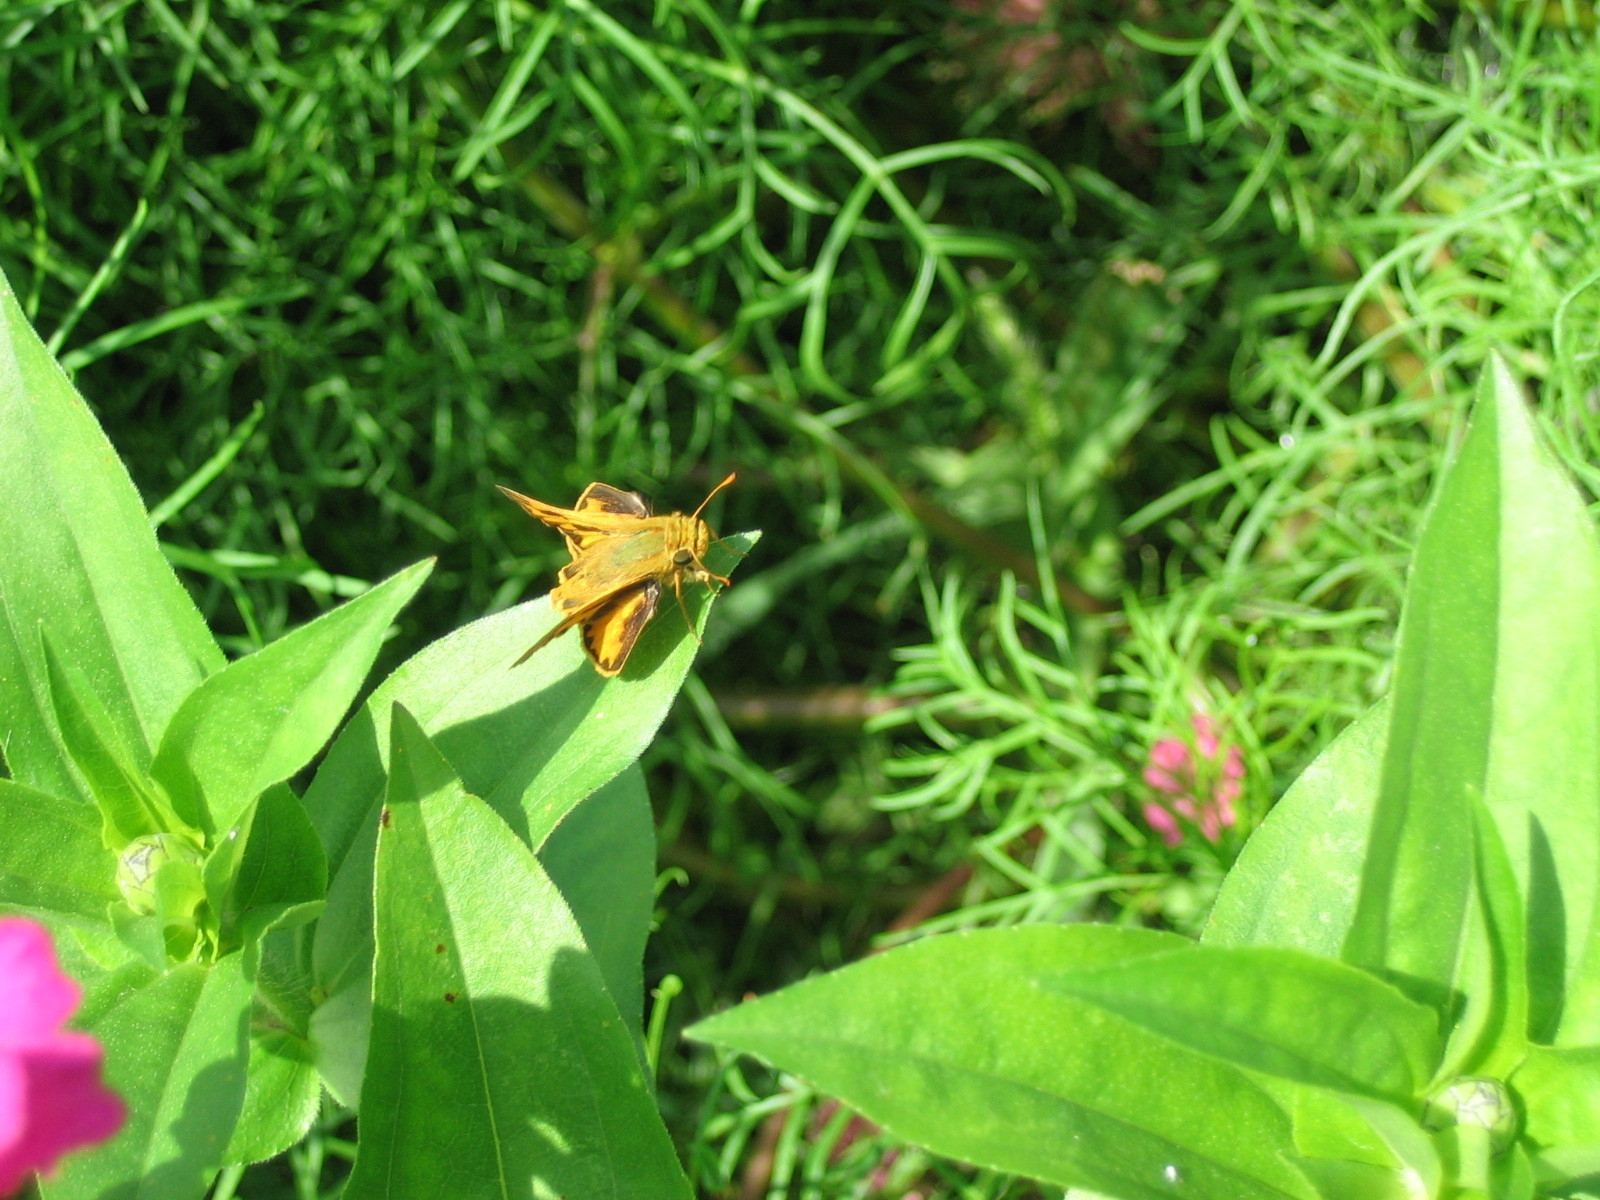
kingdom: Animalia
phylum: Arthropoda
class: Insecta
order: Lepidoptera
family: Hesperiidae
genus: Hylephila
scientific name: Hylephila phyleus
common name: Fiery skipper
